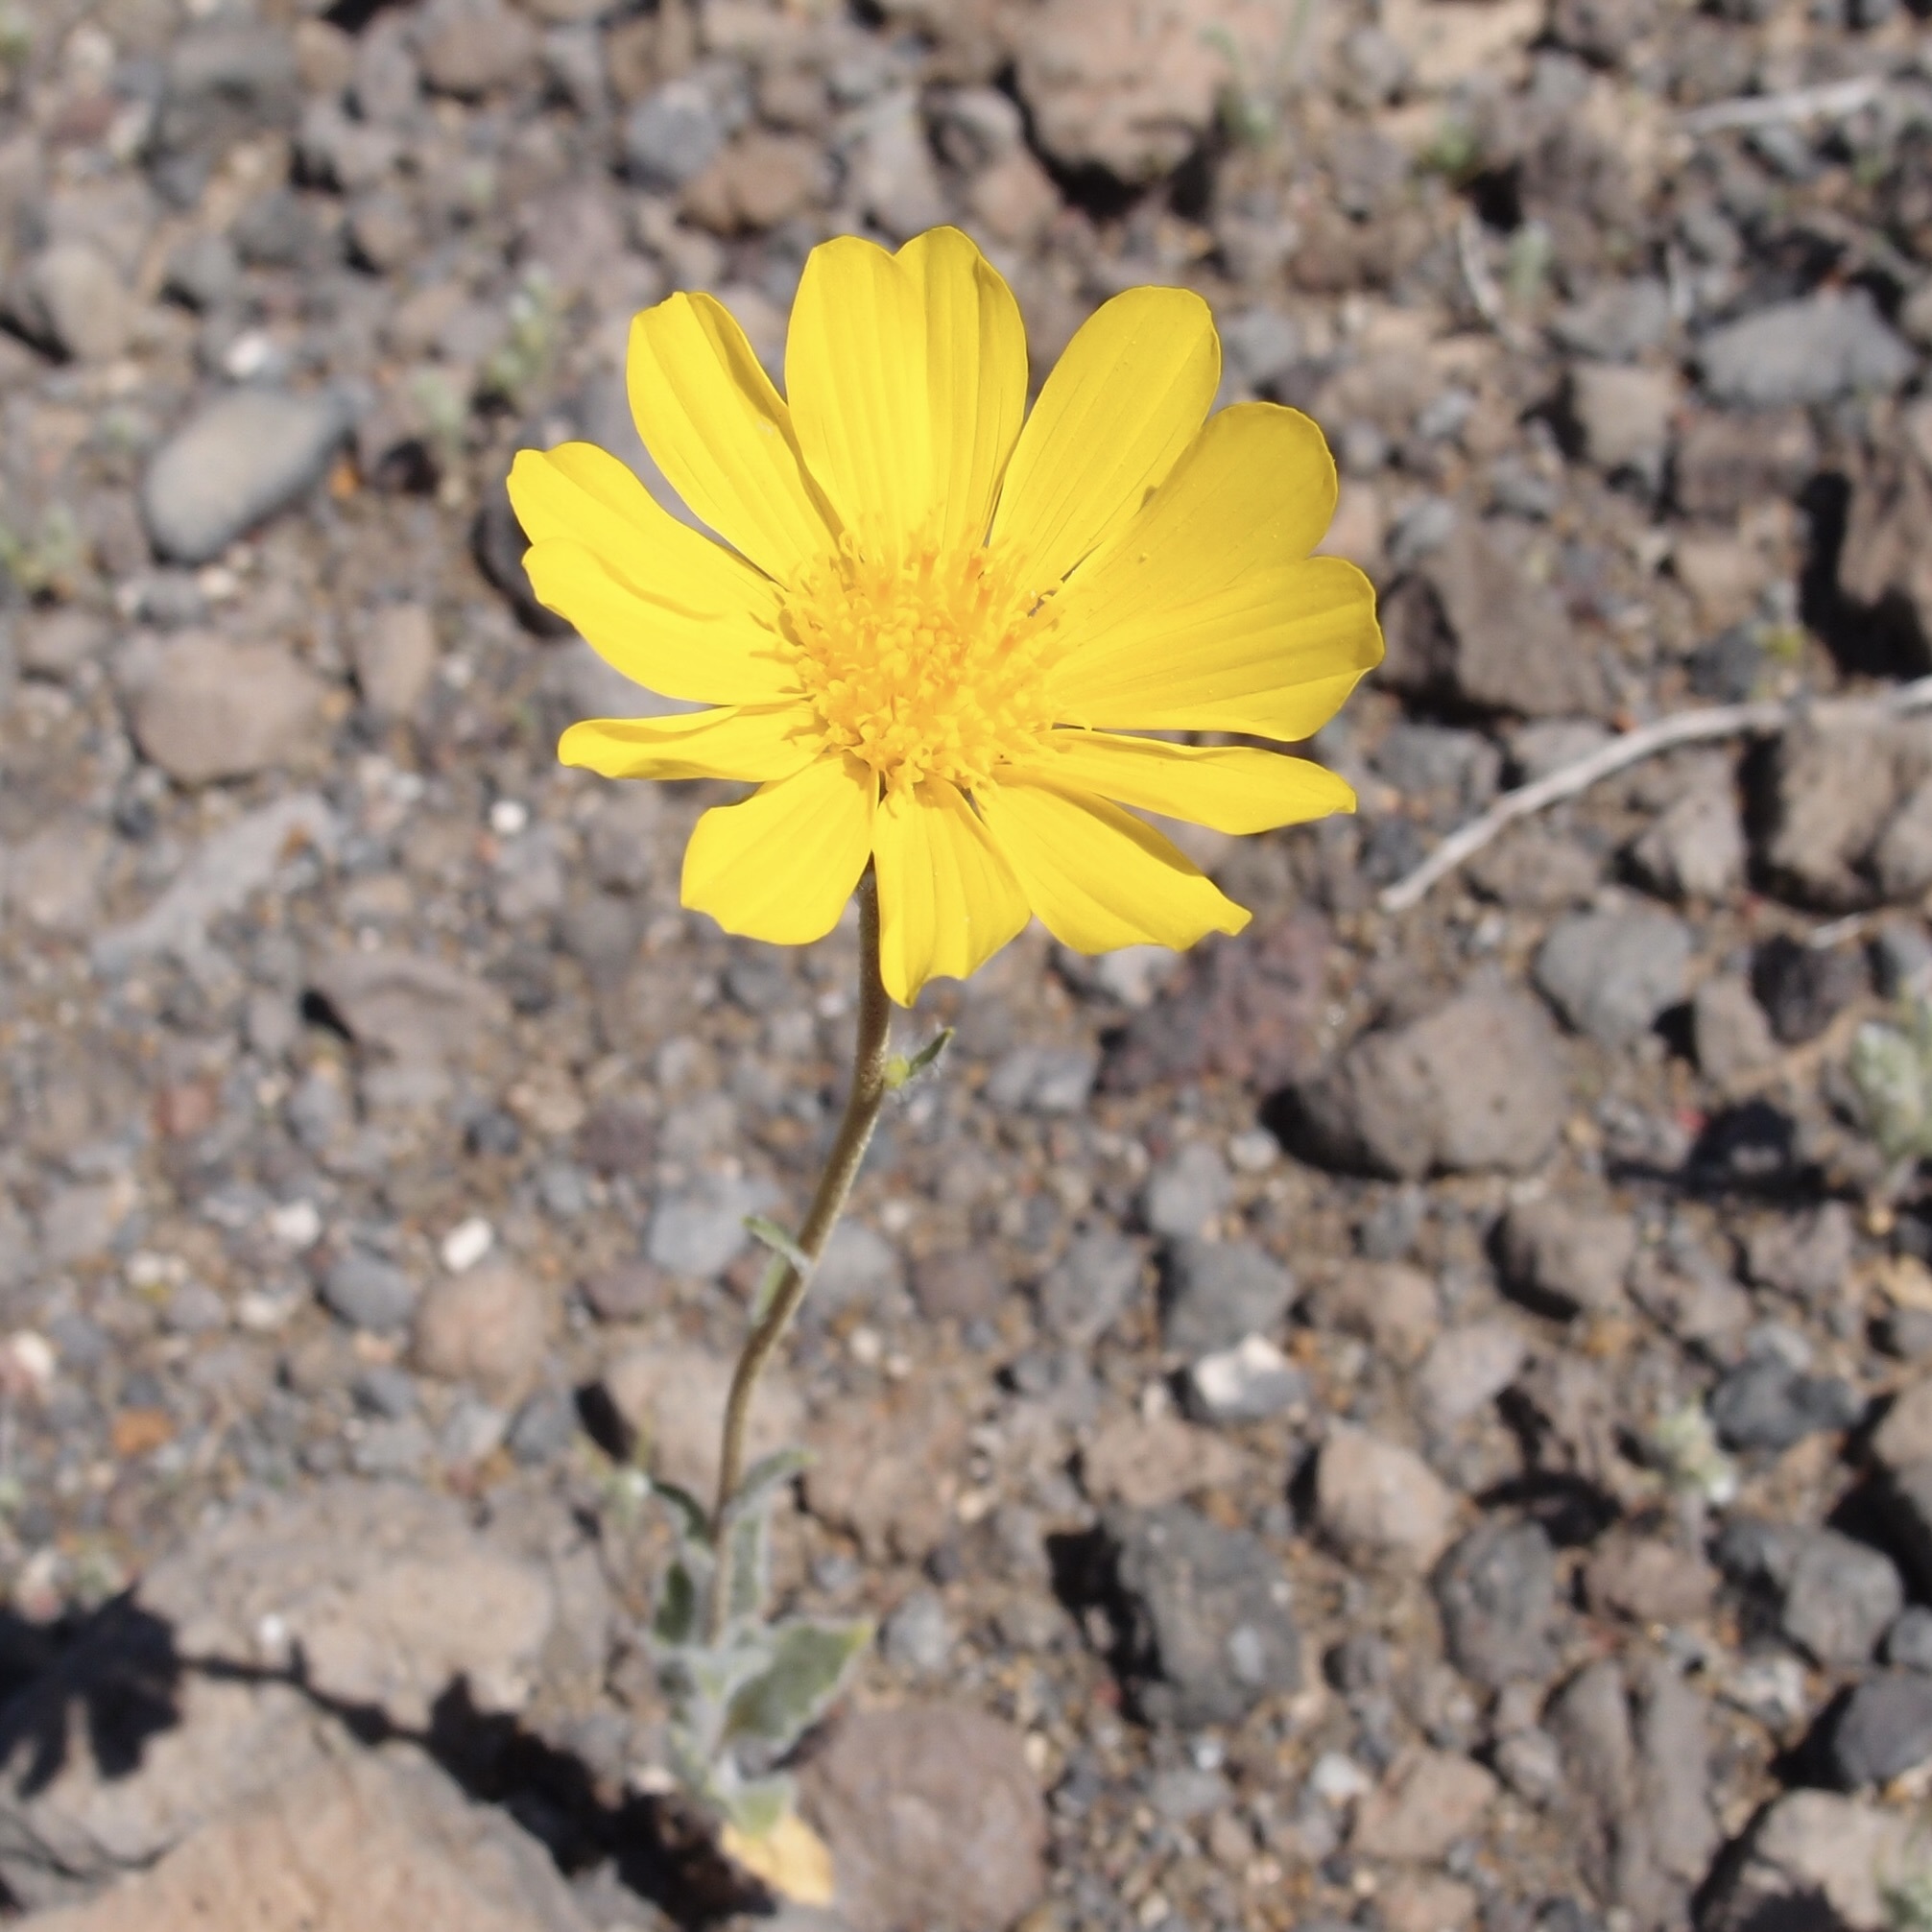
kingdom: Plantae
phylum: Tracheophyta
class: Magnoliopsida
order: Asterales
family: Asteraceae
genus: Geraea
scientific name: Geraea canescens
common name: Desert-gold
